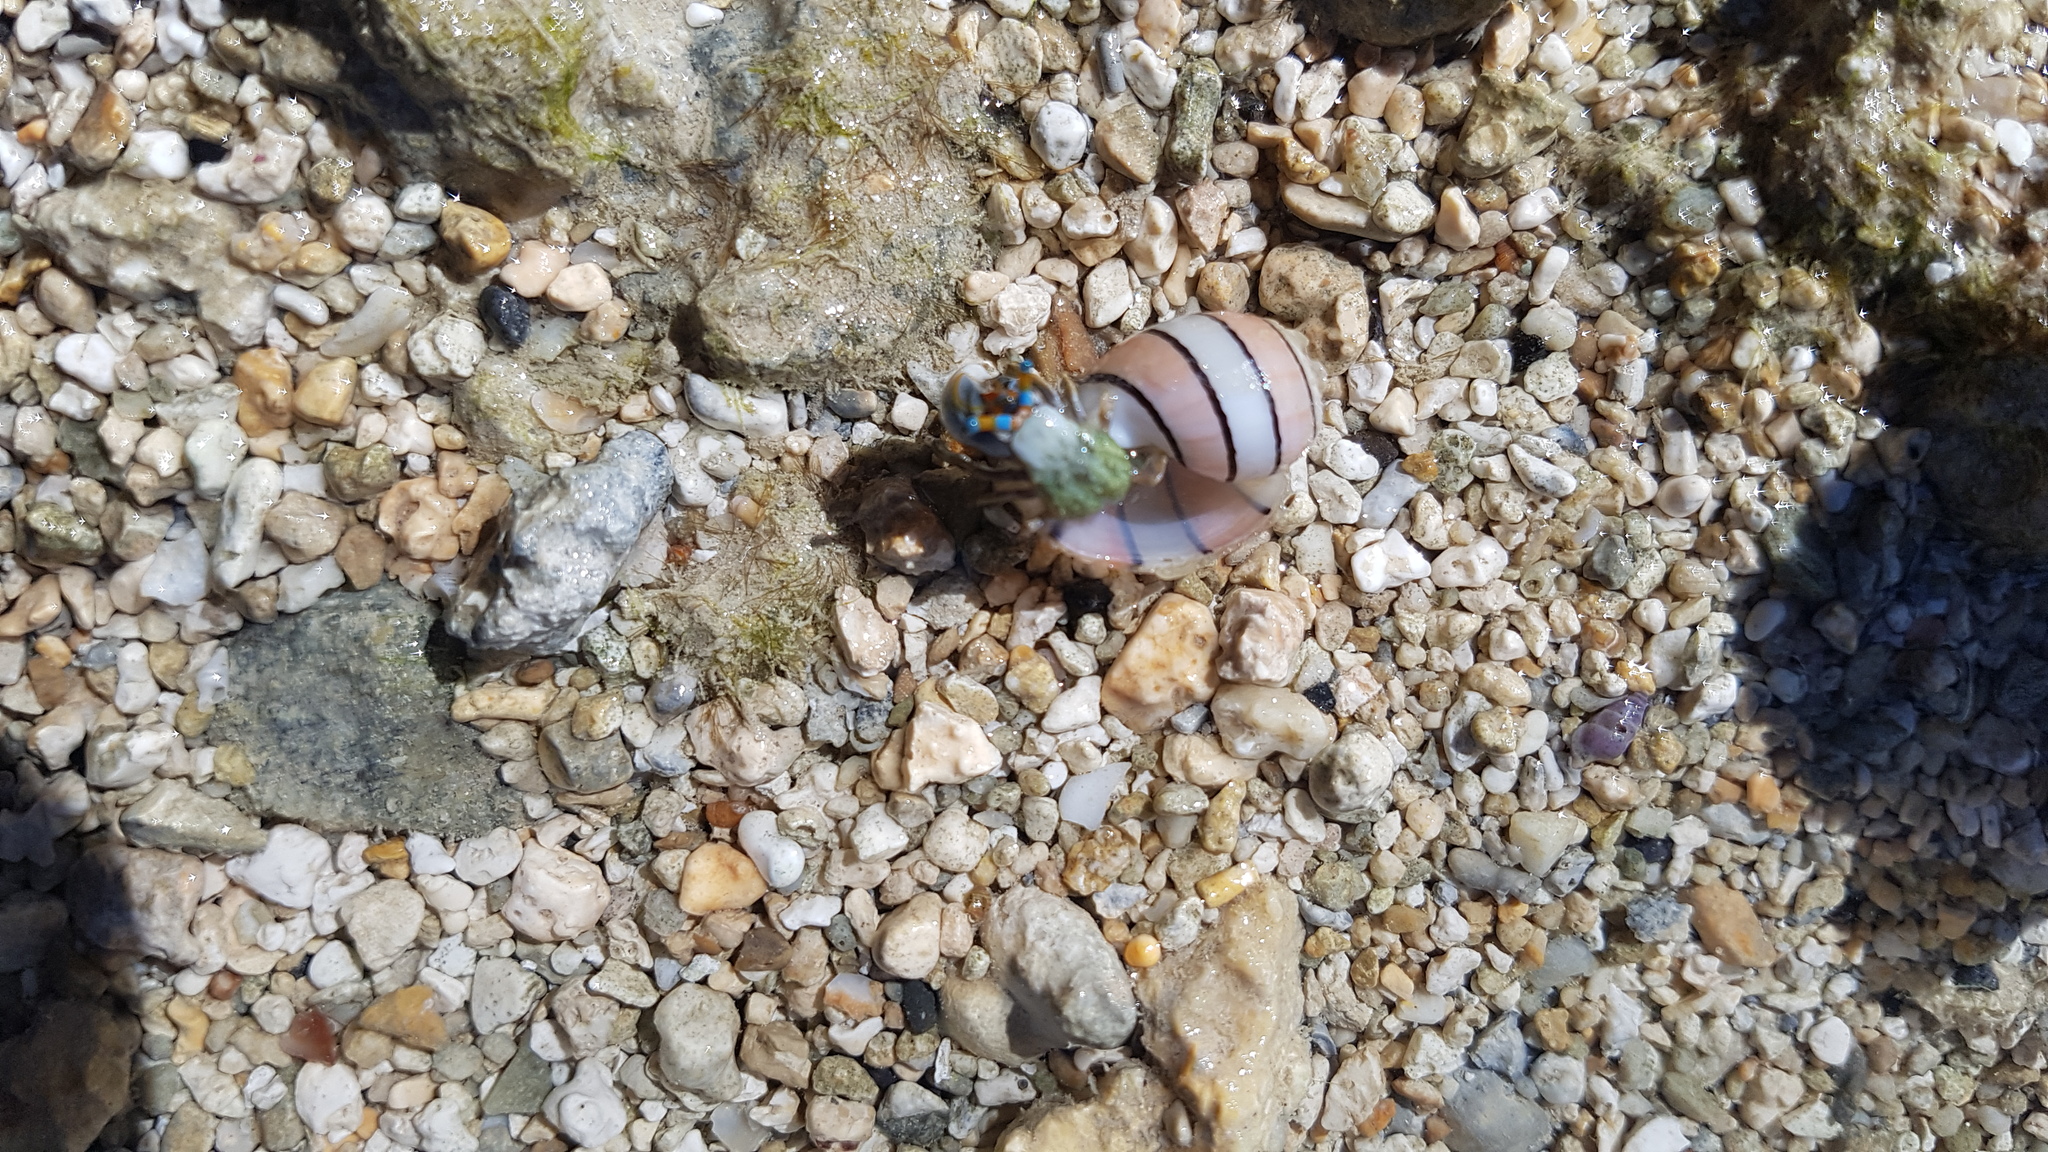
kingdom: Animalia
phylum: Mollusca
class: Gastropoda
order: Cephalaspidea
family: Aplustridae
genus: Aplustrum
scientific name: Aplustrum amplustre
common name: Royal paperbubble
